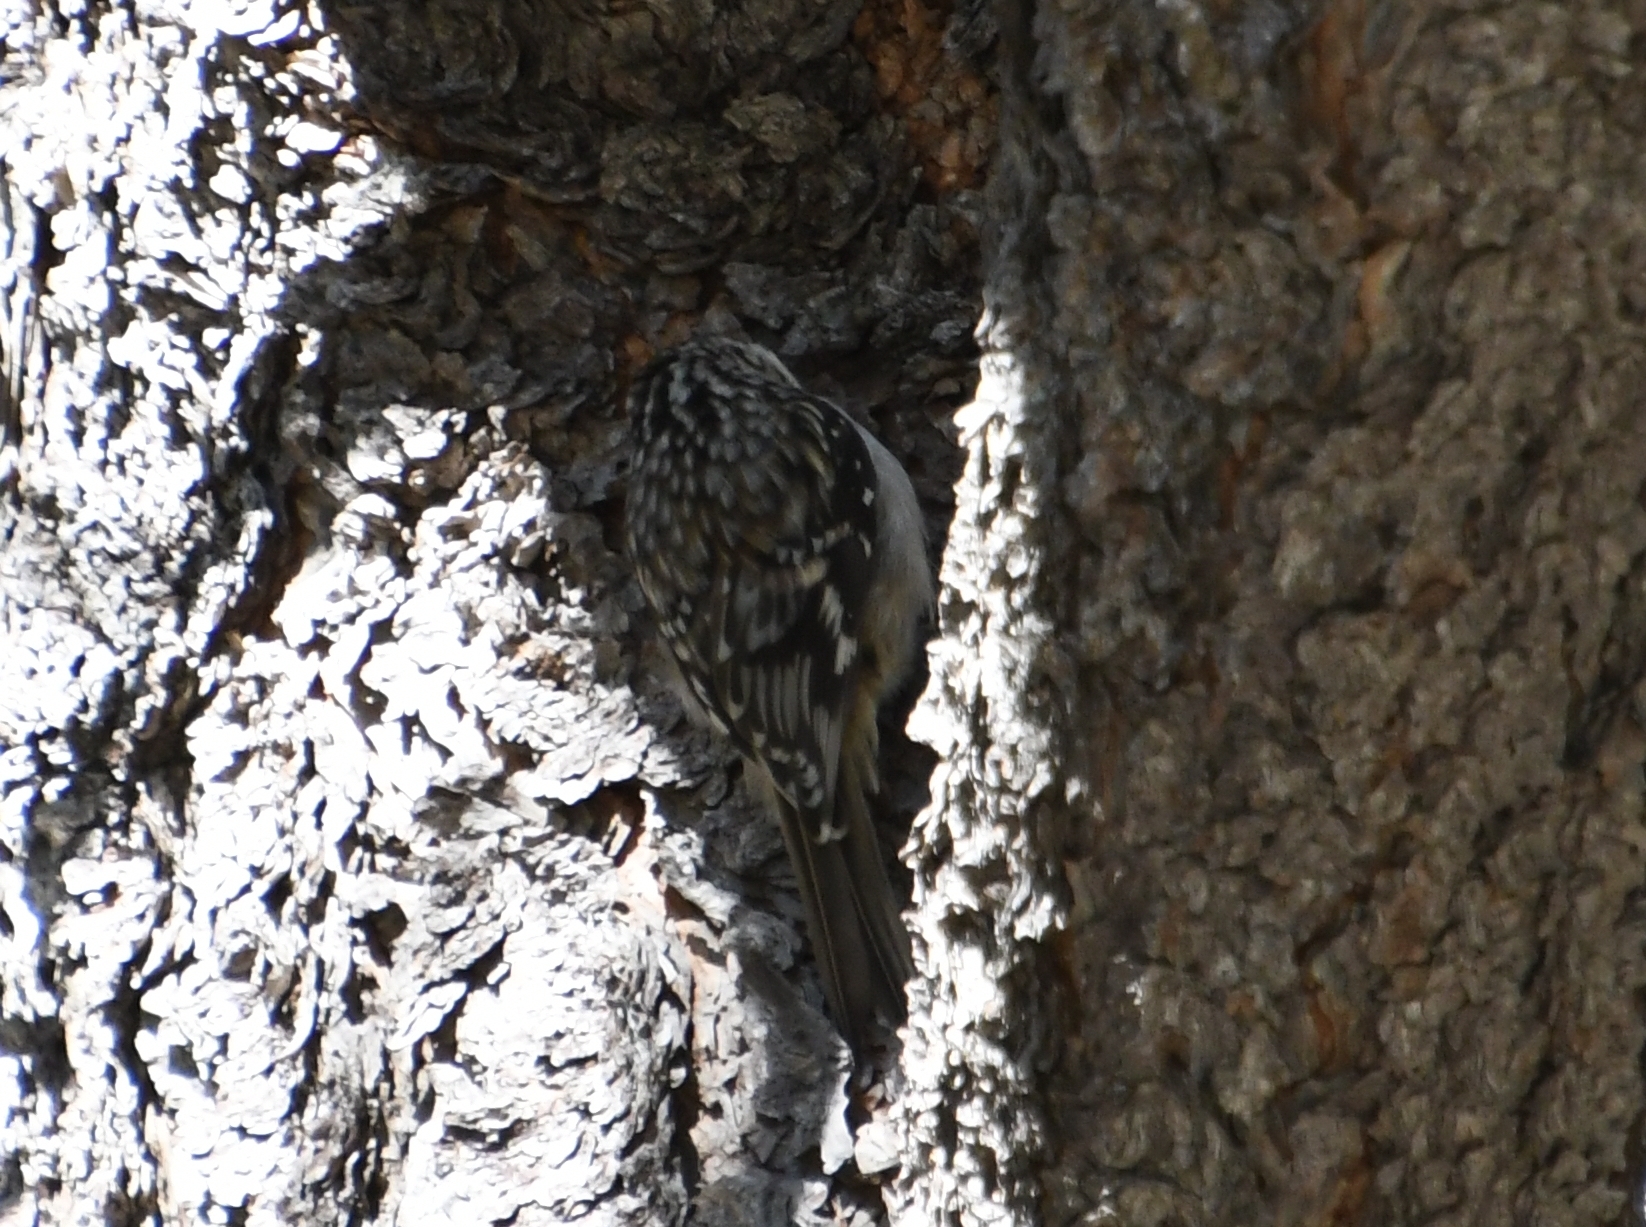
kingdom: Animalia
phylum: Chordata
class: Aves
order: Passeriformes
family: Certhiidae
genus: Certhia
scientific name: Certhia americana
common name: Brown creeper
